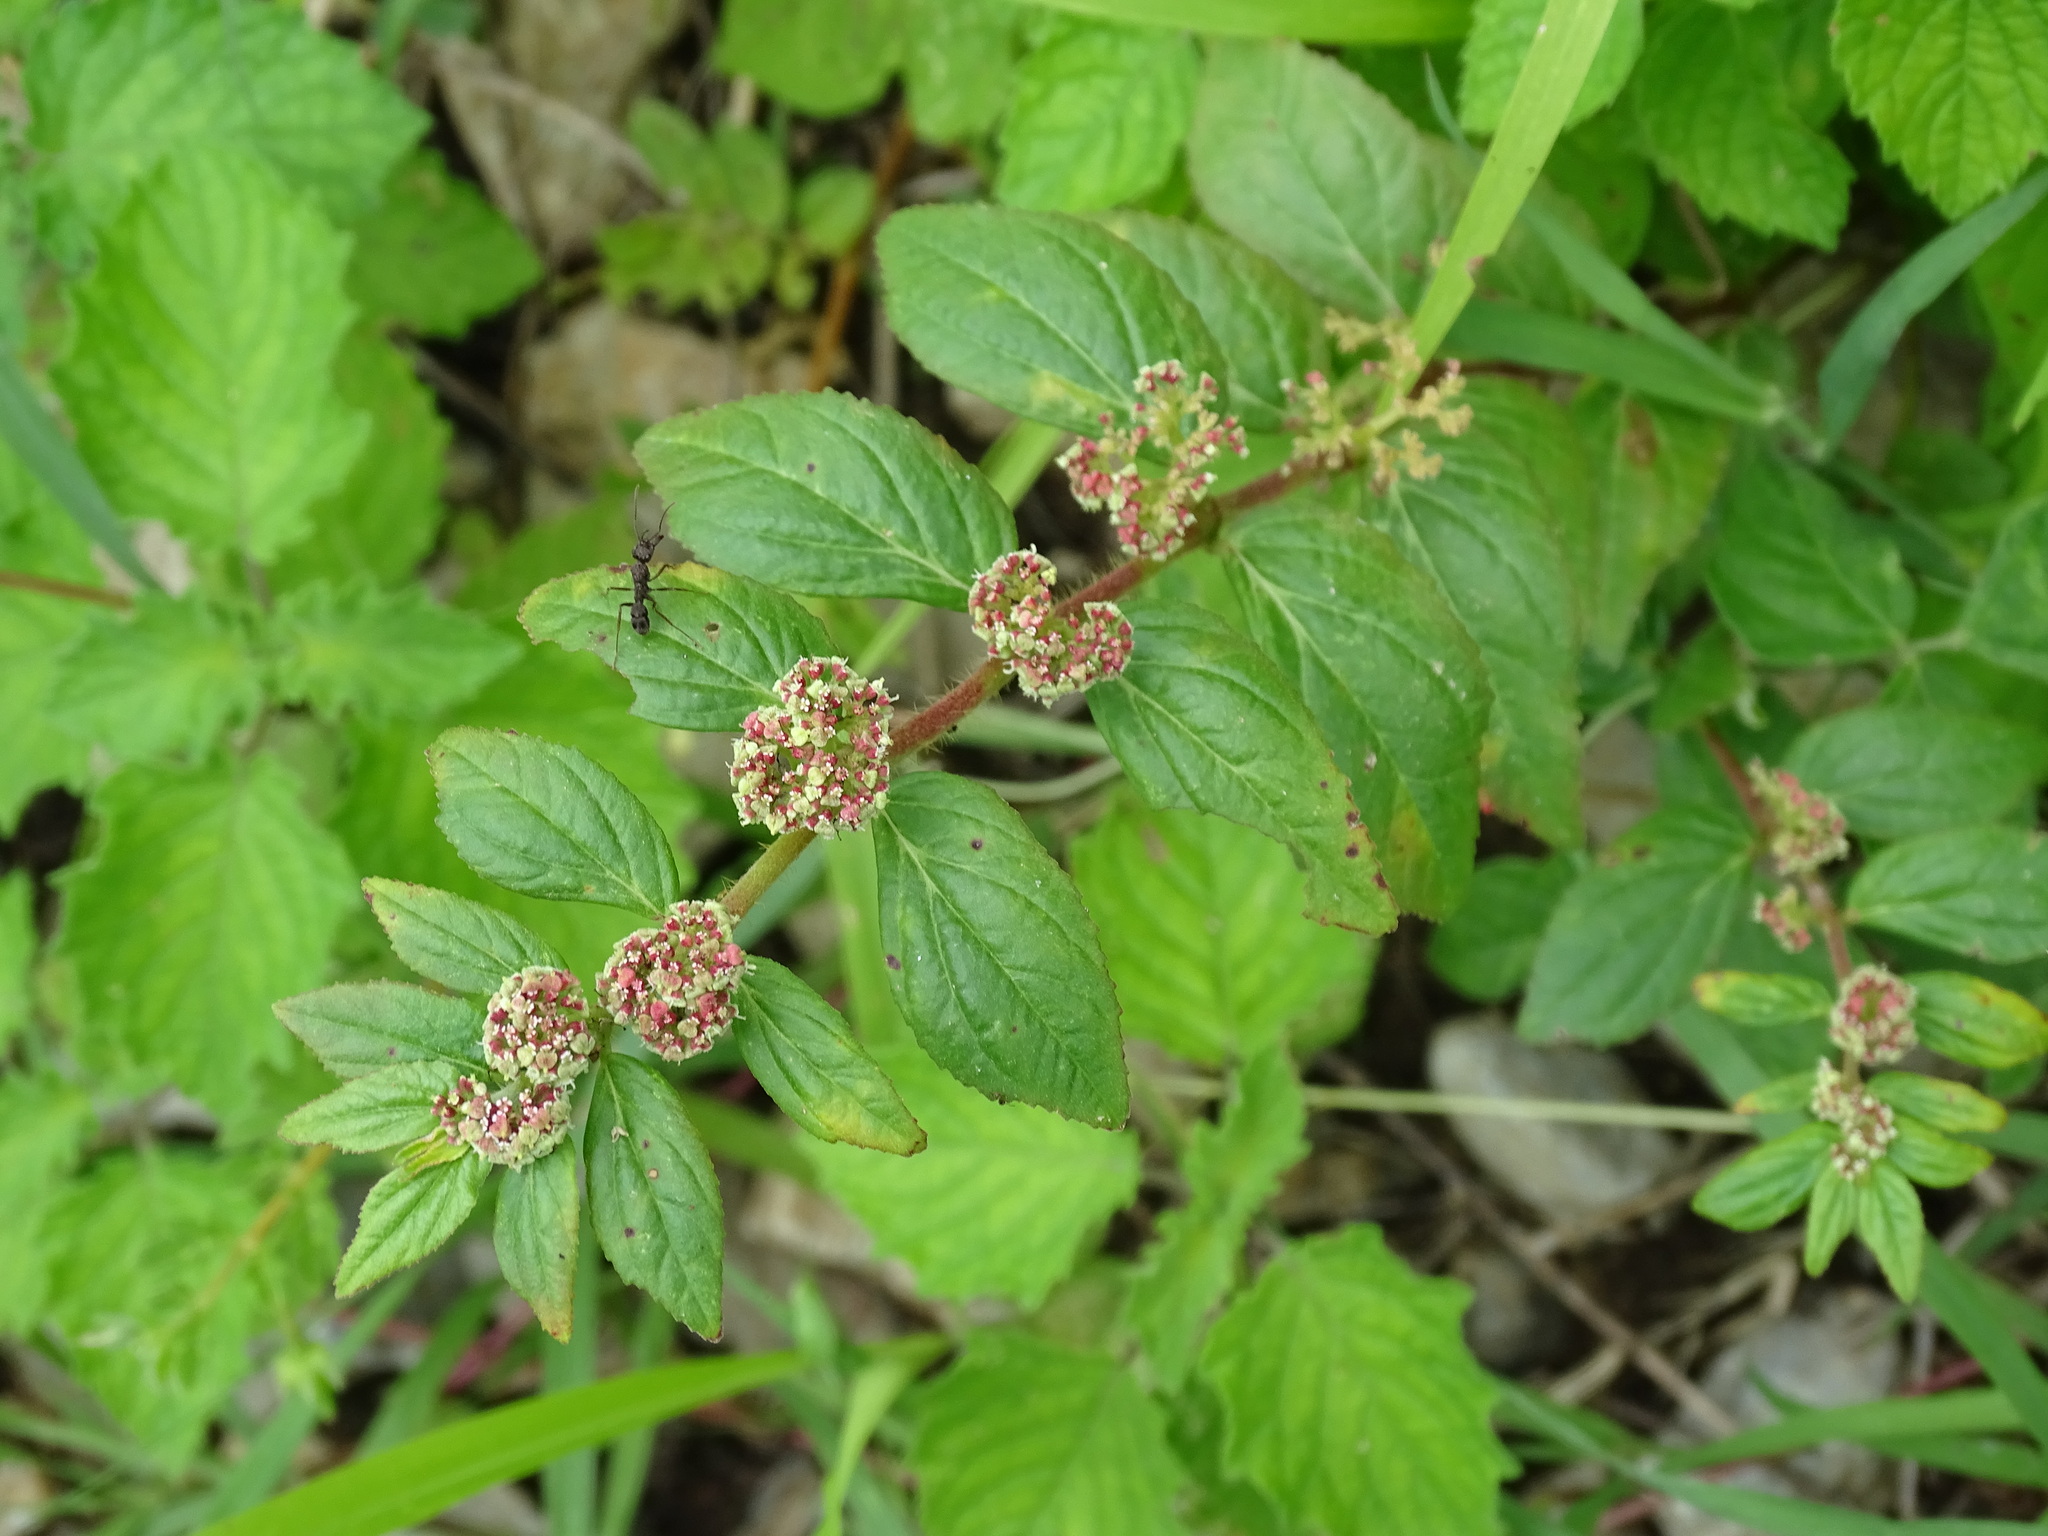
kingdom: Plantae
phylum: Tracheophyta
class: Magnoliopsida
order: Malpighiales
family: Euphorbiaceae
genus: Euphorbia
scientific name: Euphorbia hirta
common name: Pillpod sandmat
